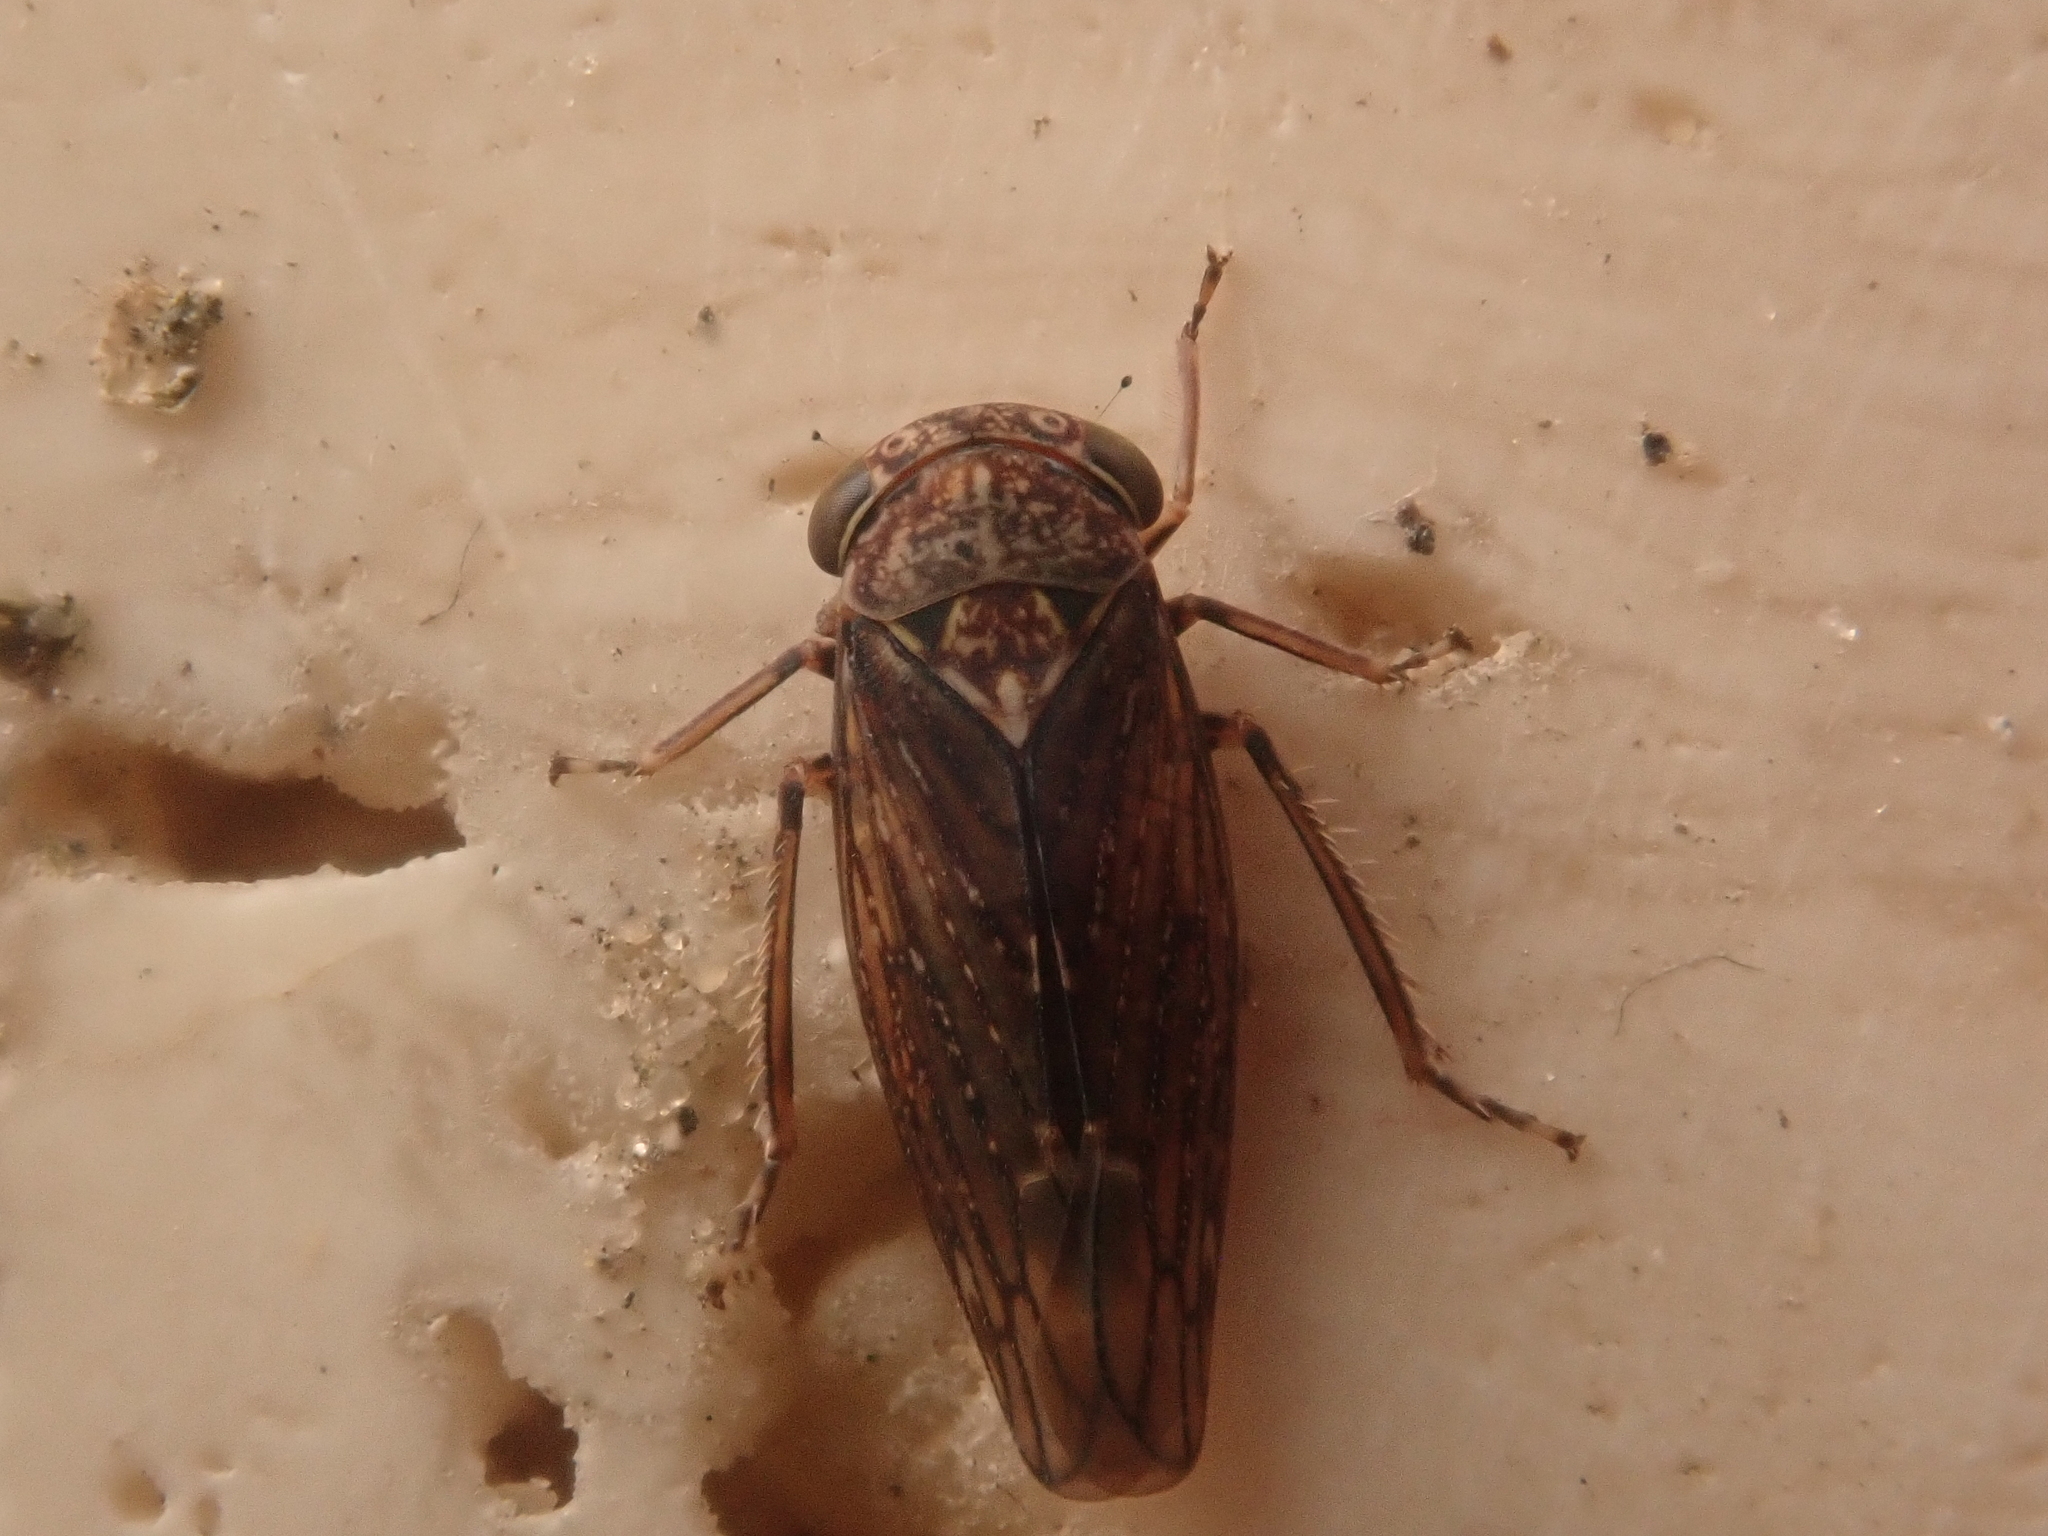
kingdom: Animalia
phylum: Arthropoda
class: Insecta
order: Hemiptera
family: Cicadellidae
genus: Acericerus
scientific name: Acericerus ribauti
